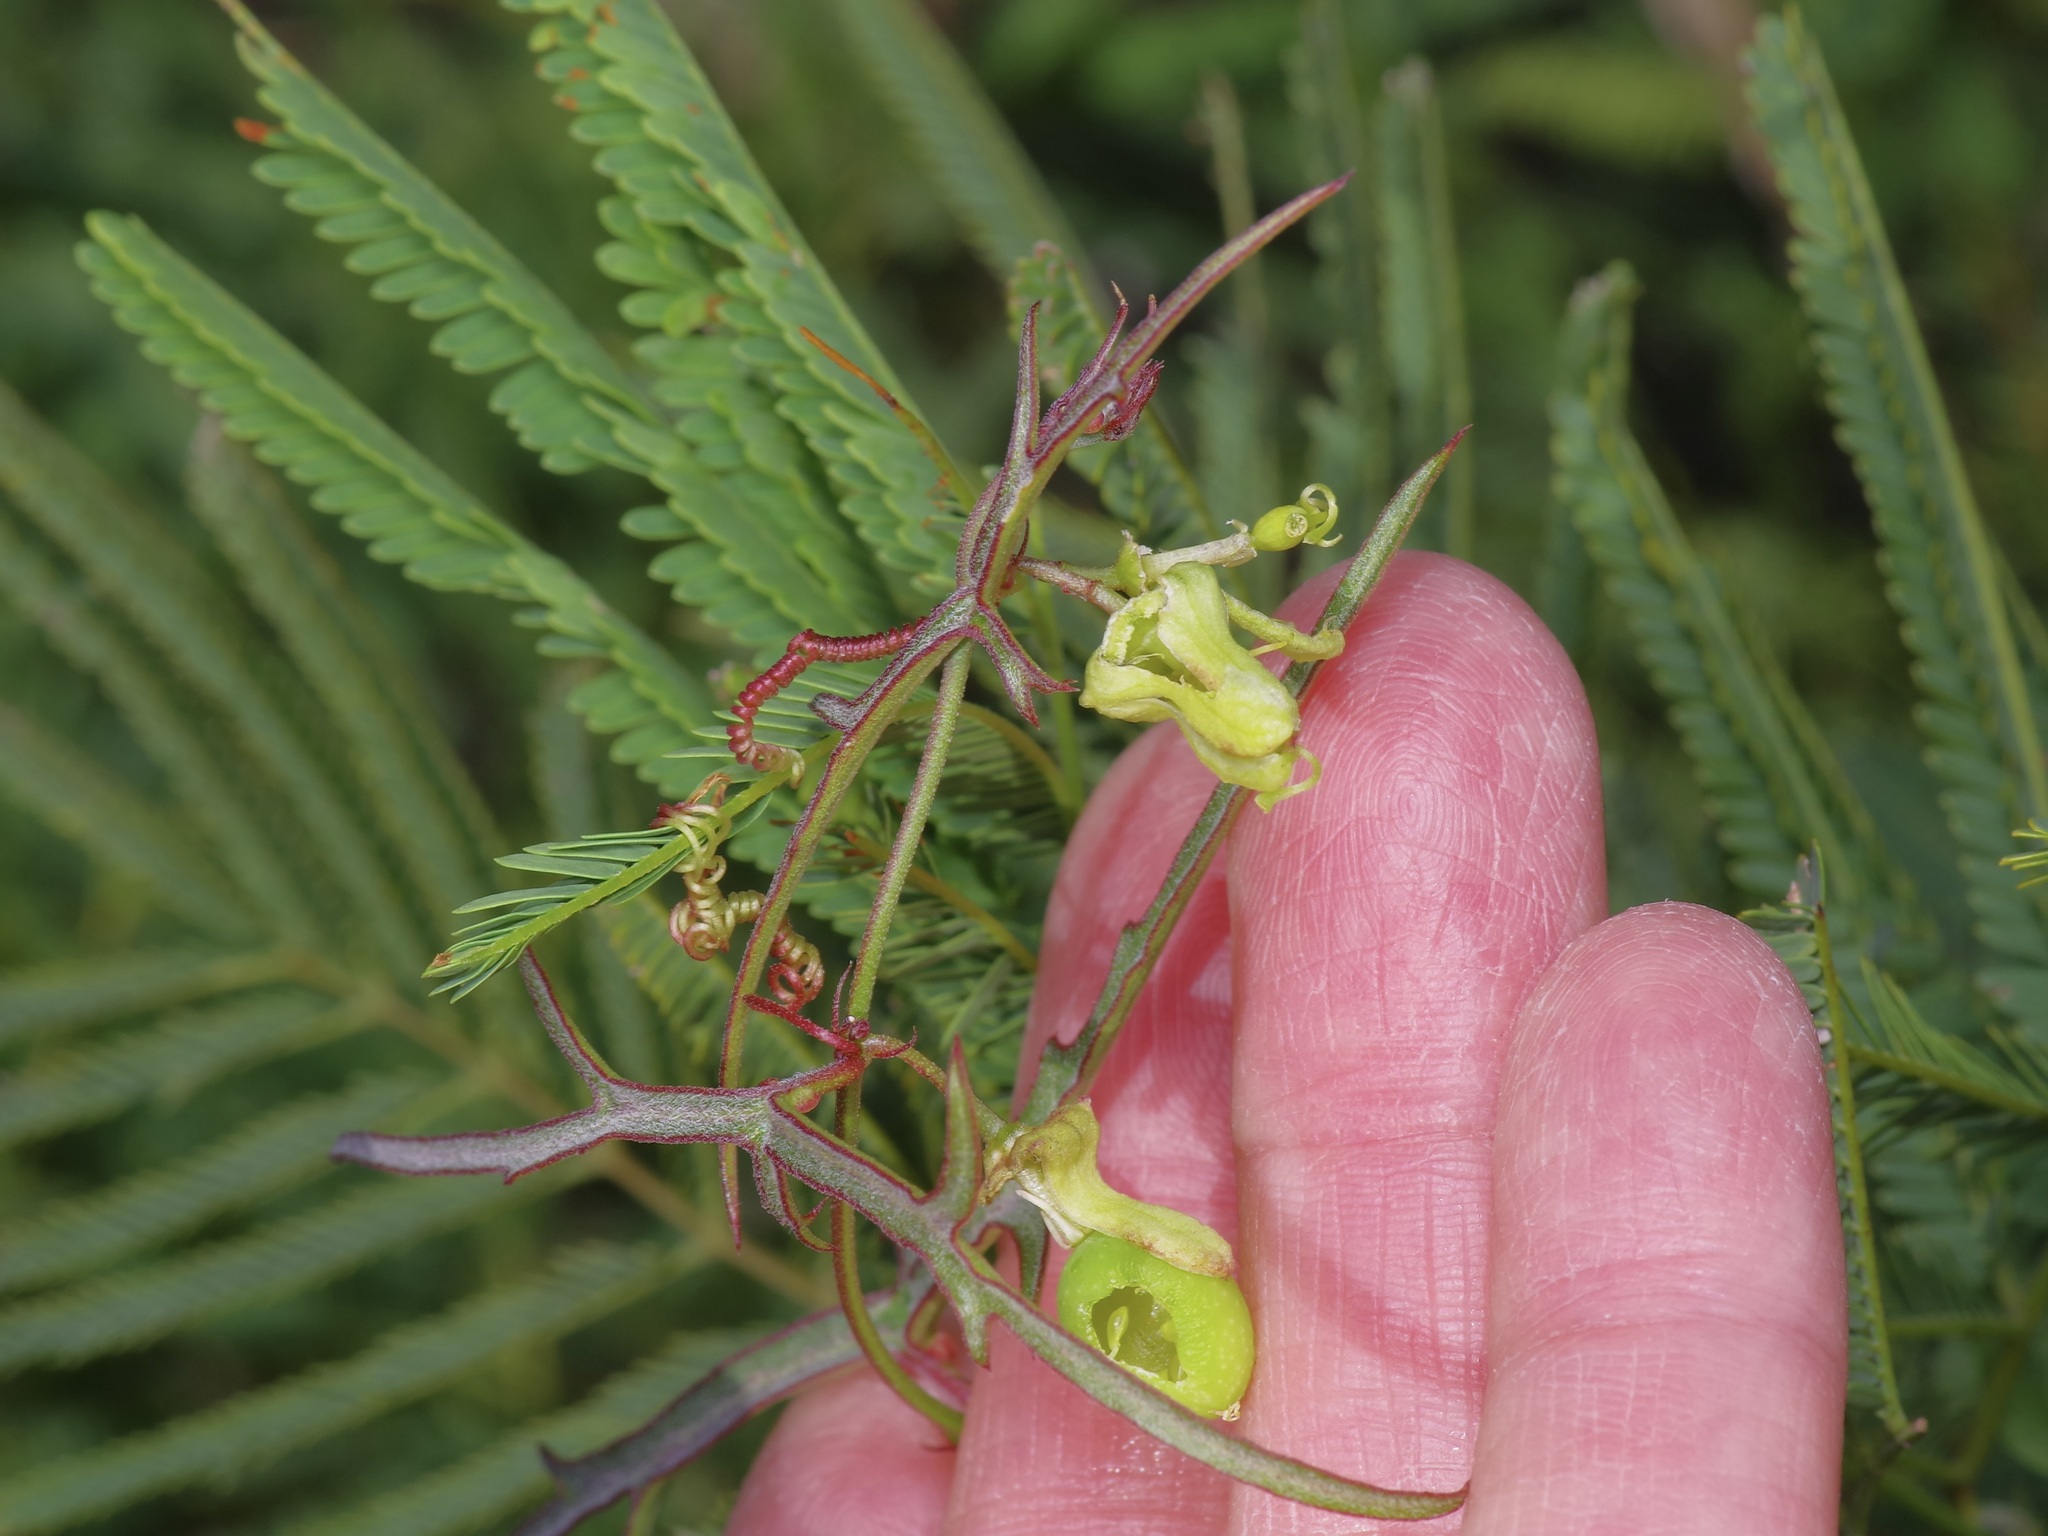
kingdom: Plantae
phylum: Tracheophyta
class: Magnoliopsida
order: Malpighiales
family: Passifloraceae
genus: Passiflora
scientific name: Passiflora tenuiloba
